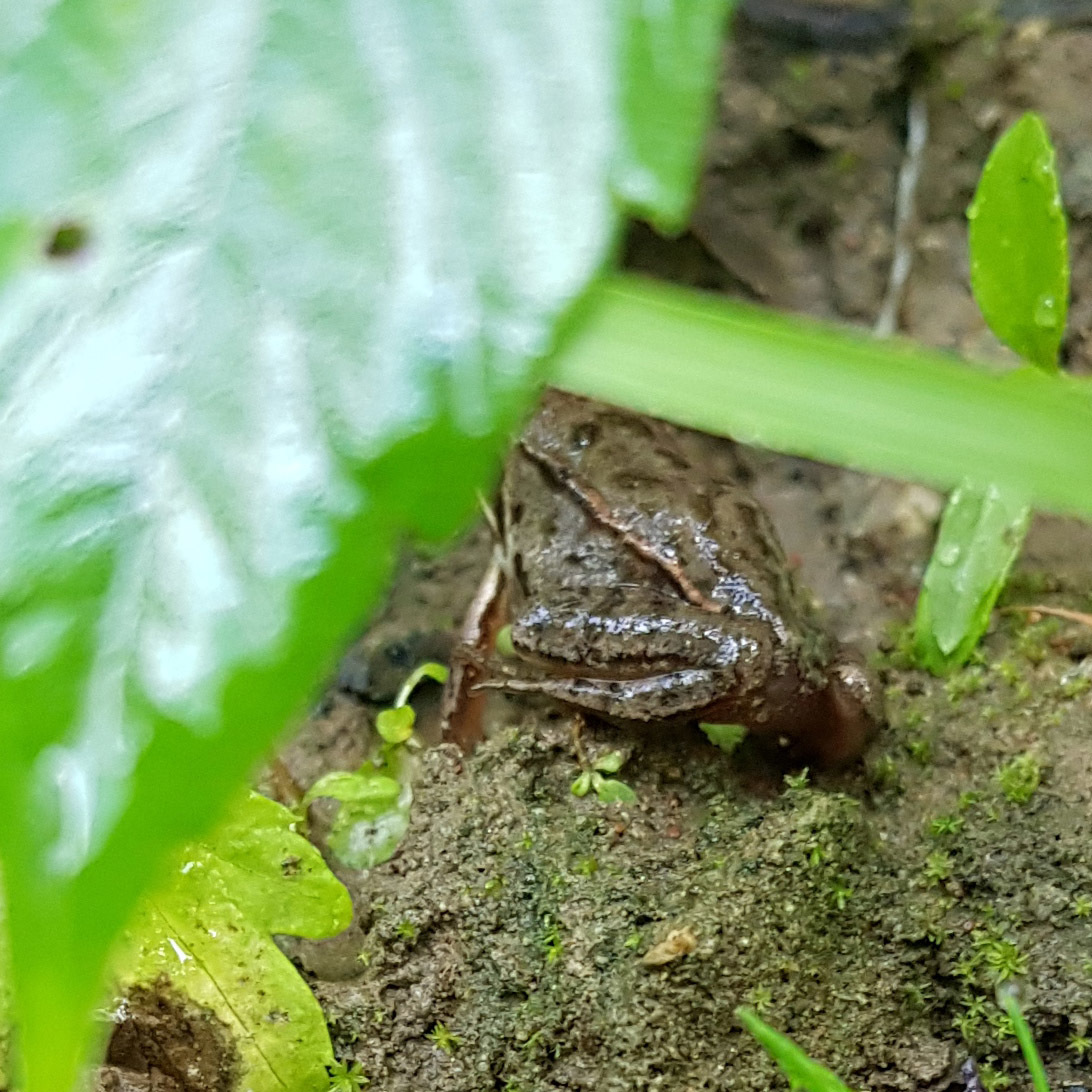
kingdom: Animalia
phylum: Chordata
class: Amphibia
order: Anura
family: Ranidae
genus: Rana
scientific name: Rana arvalis
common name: Moor frog
